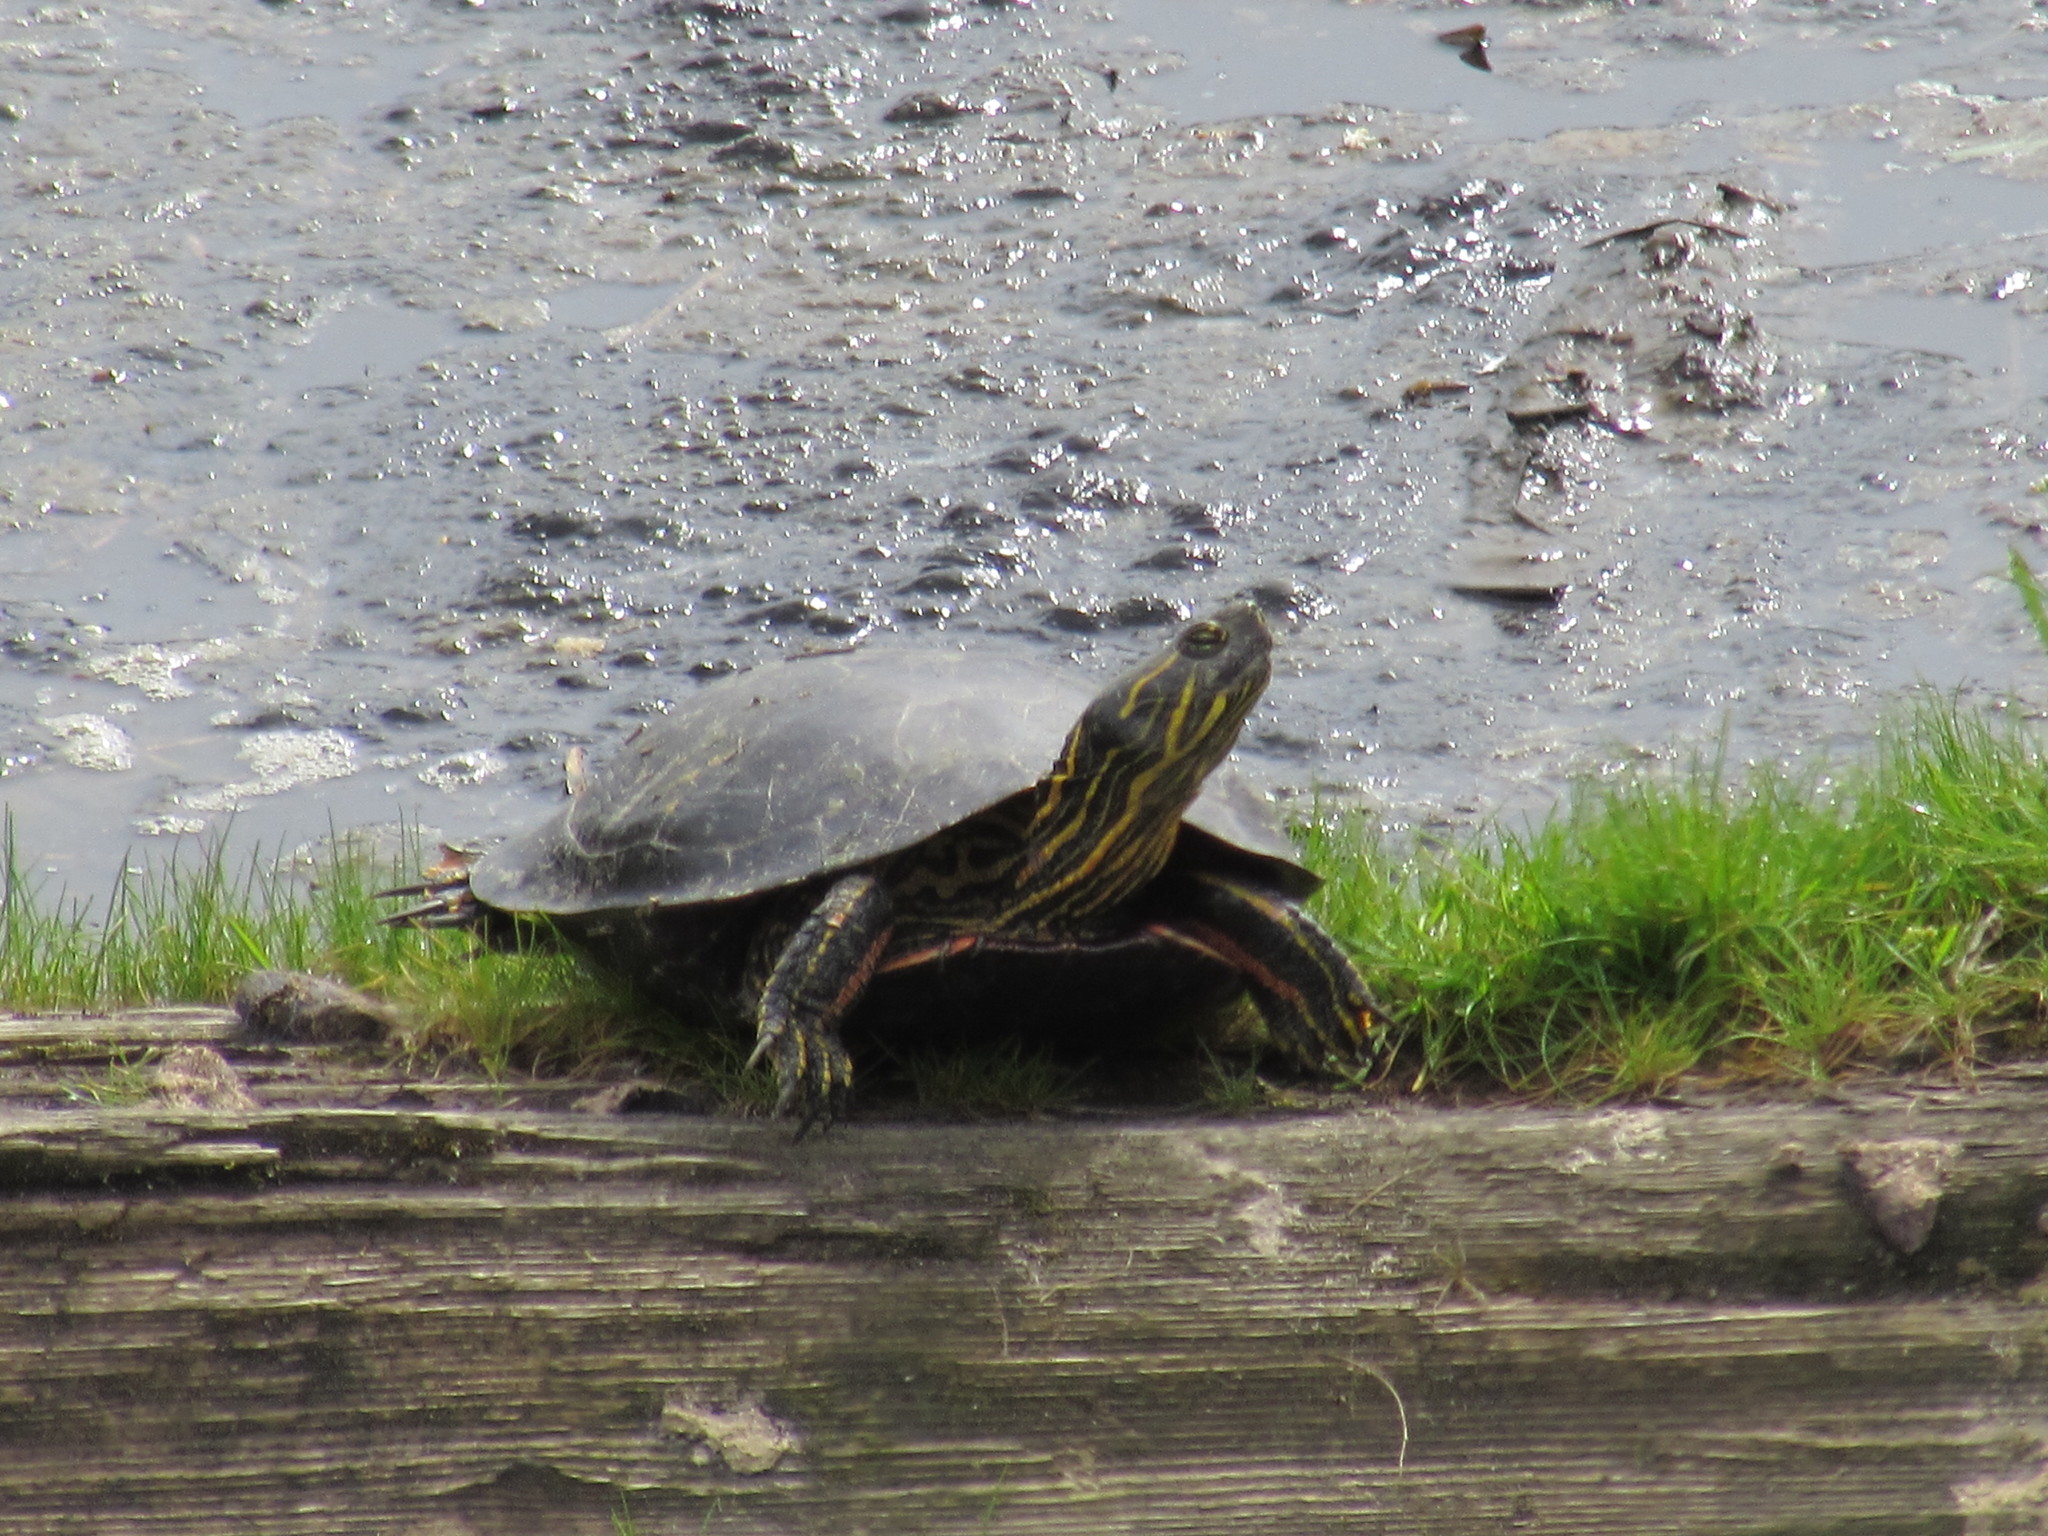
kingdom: Animalia
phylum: Chordata
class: Testudines
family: Emydidae
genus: Chrysemys
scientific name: Chrysemys picta
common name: Painted turtle
